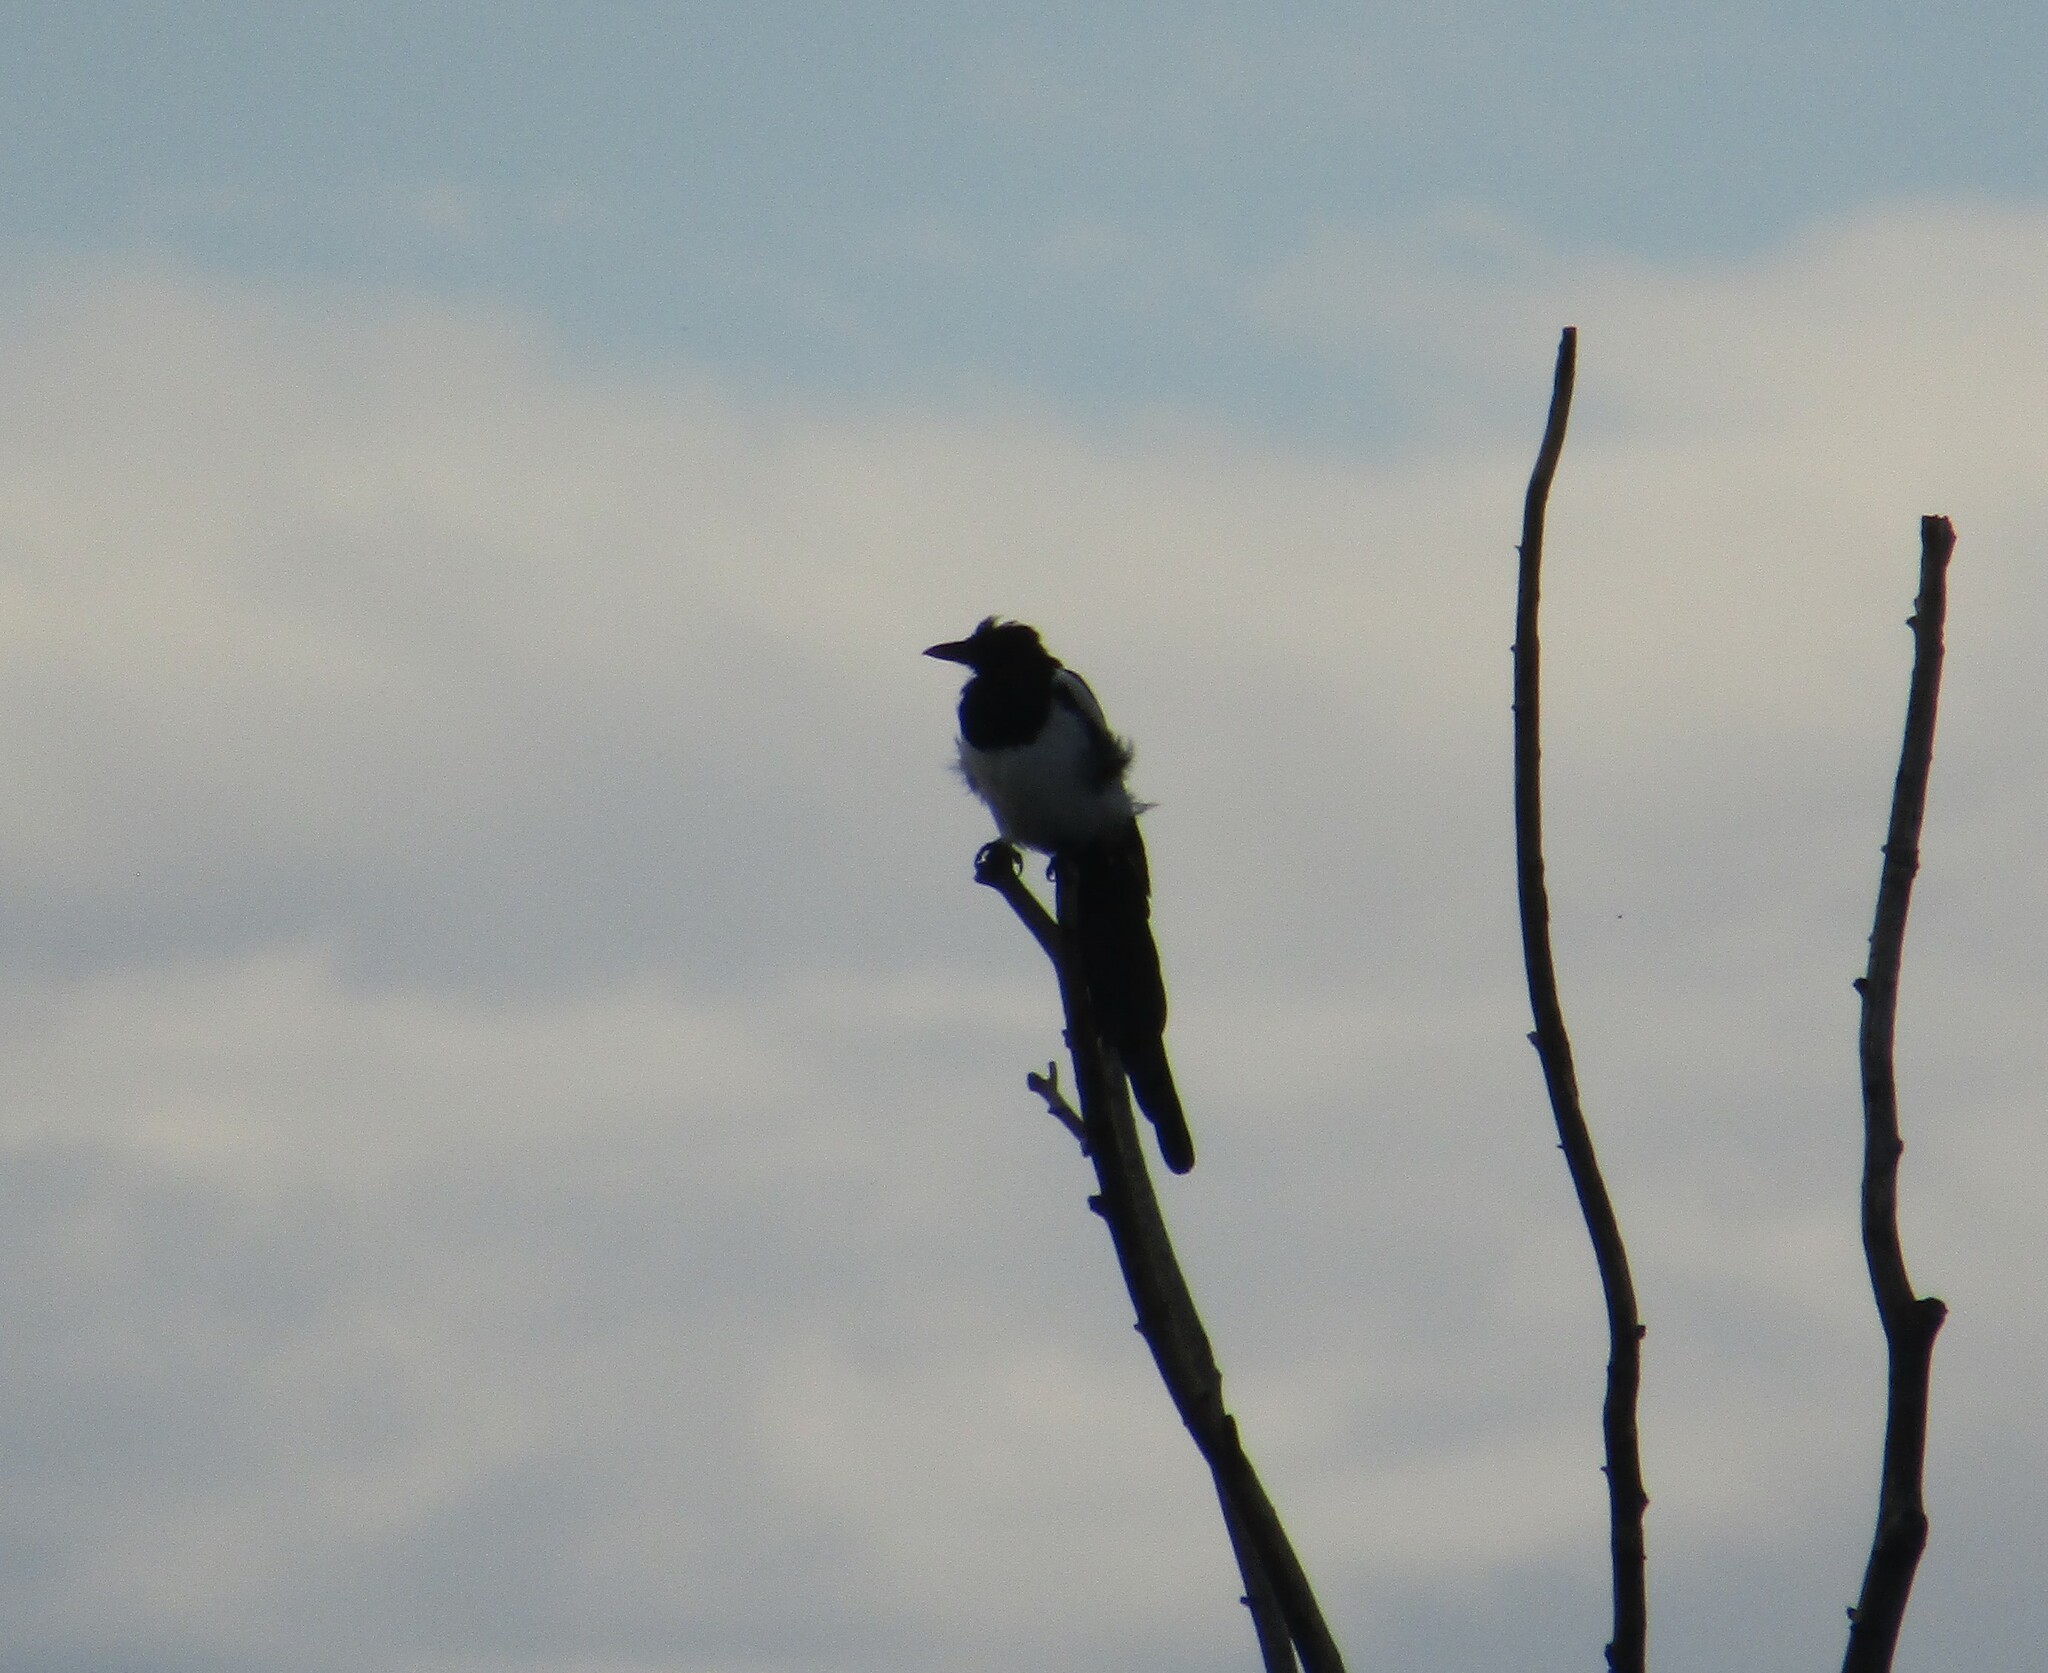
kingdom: Animalia
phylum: Chordata
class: Aves
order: Passeriformes
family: Corvidae
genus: Pica
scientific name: Pica pica
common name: Eurasian magpie
